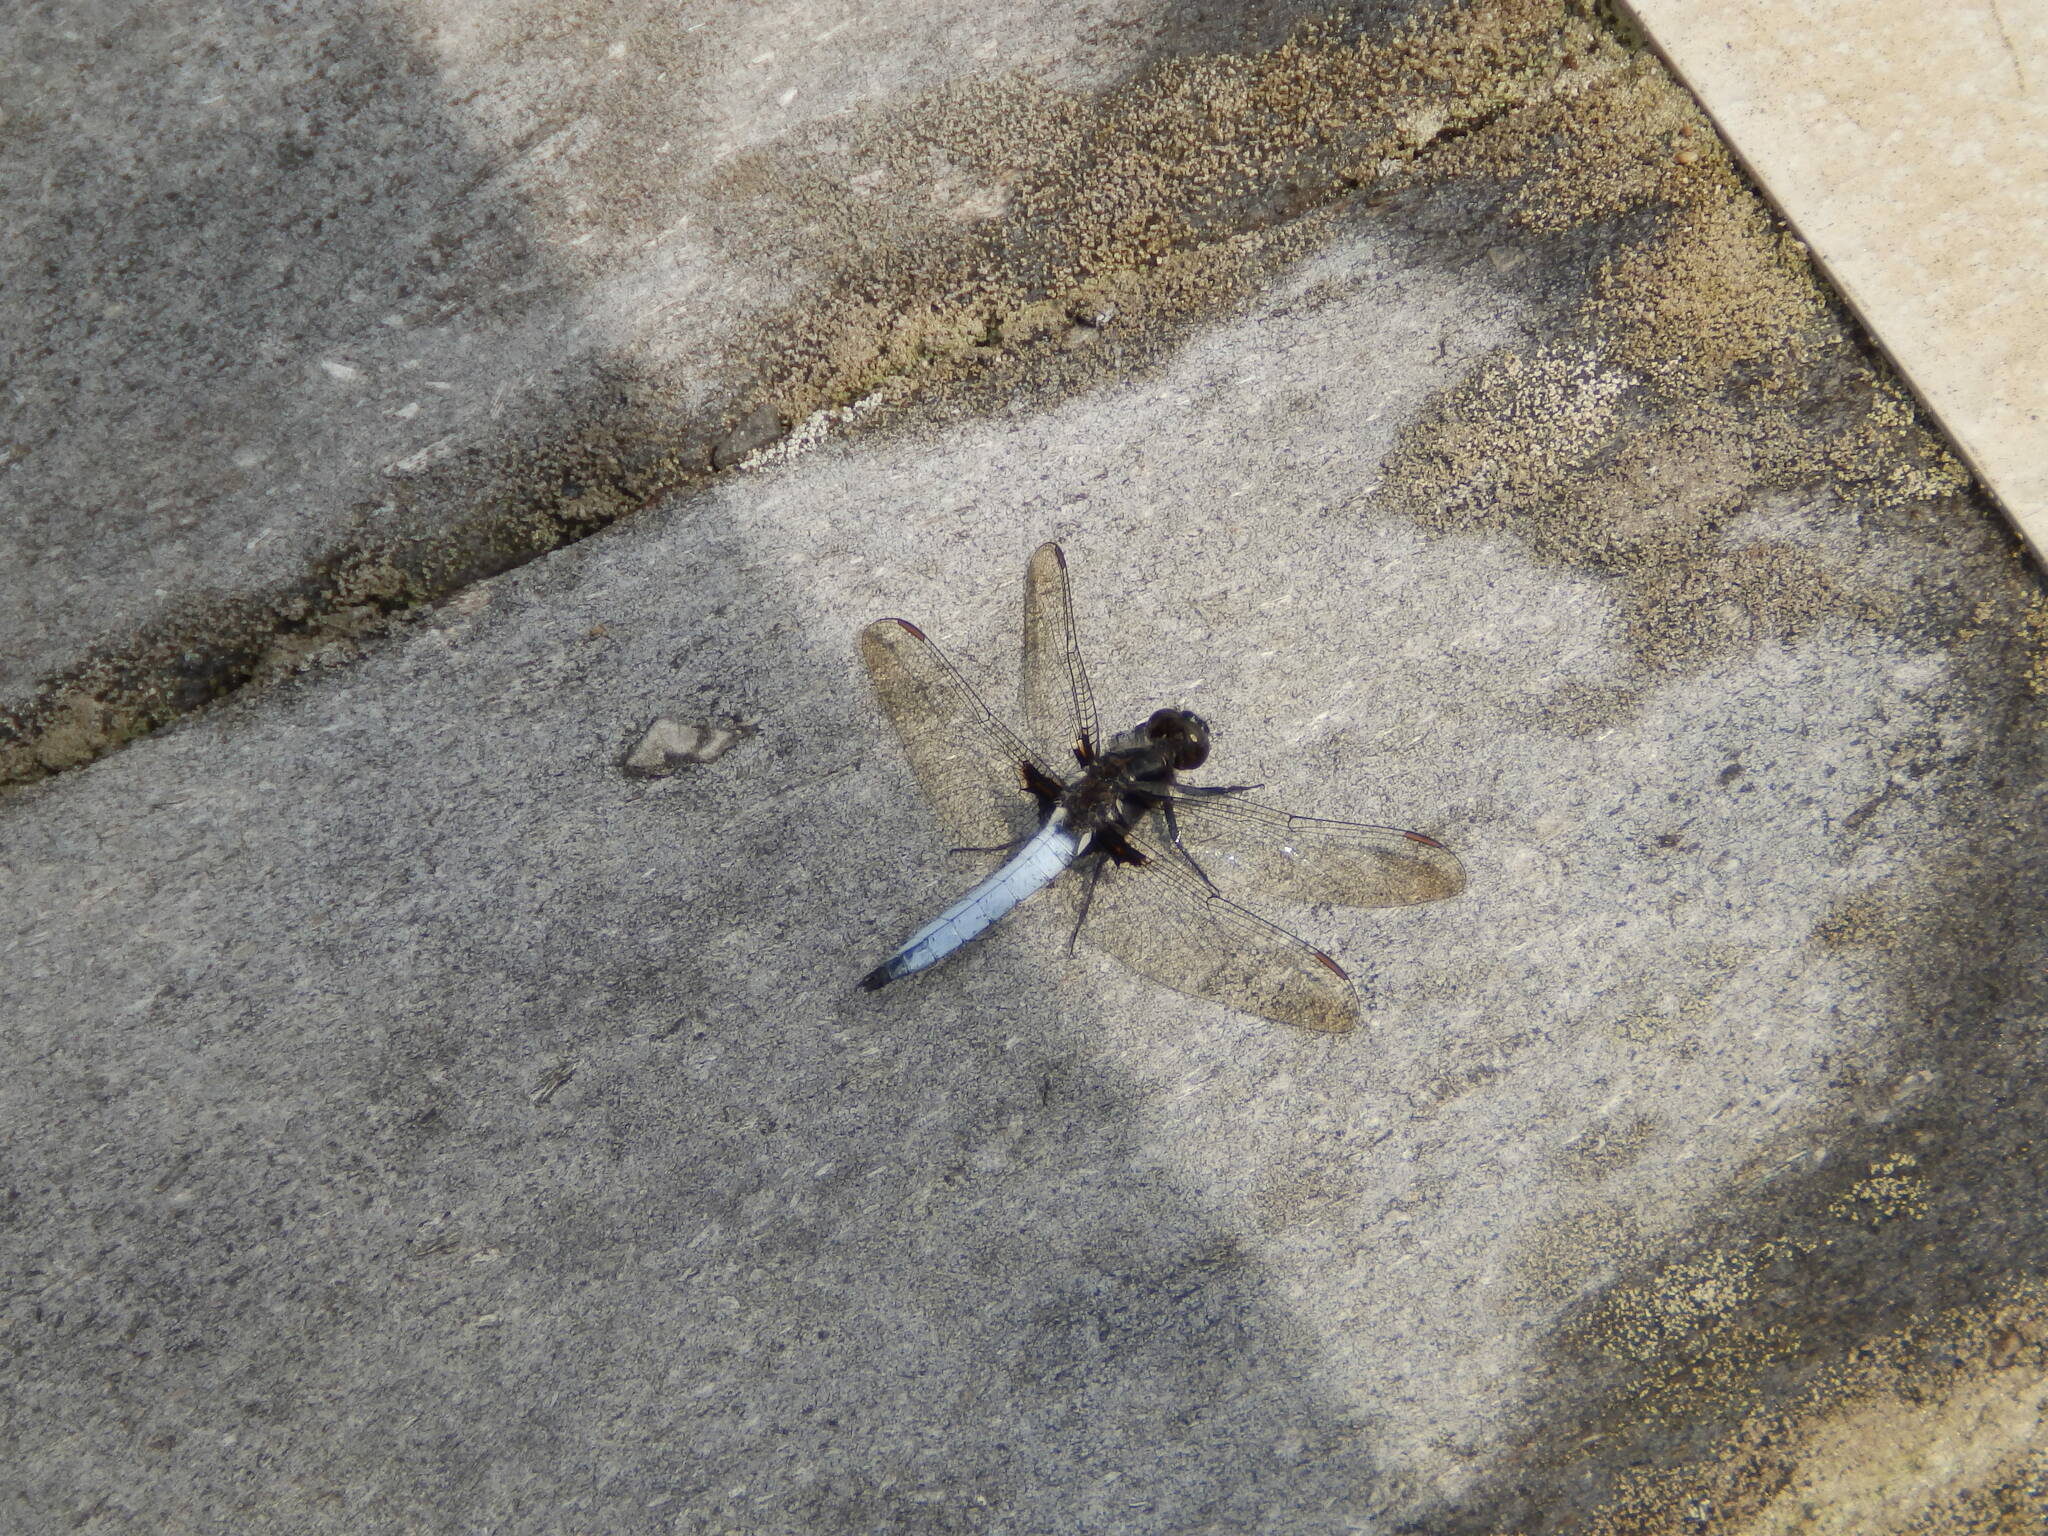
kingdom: Animalia
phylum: Arthropoda
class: Insecta
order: Odonata
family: Libellulidae
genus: Ladona
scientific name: Ladona deplanata
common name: Blue corporal
